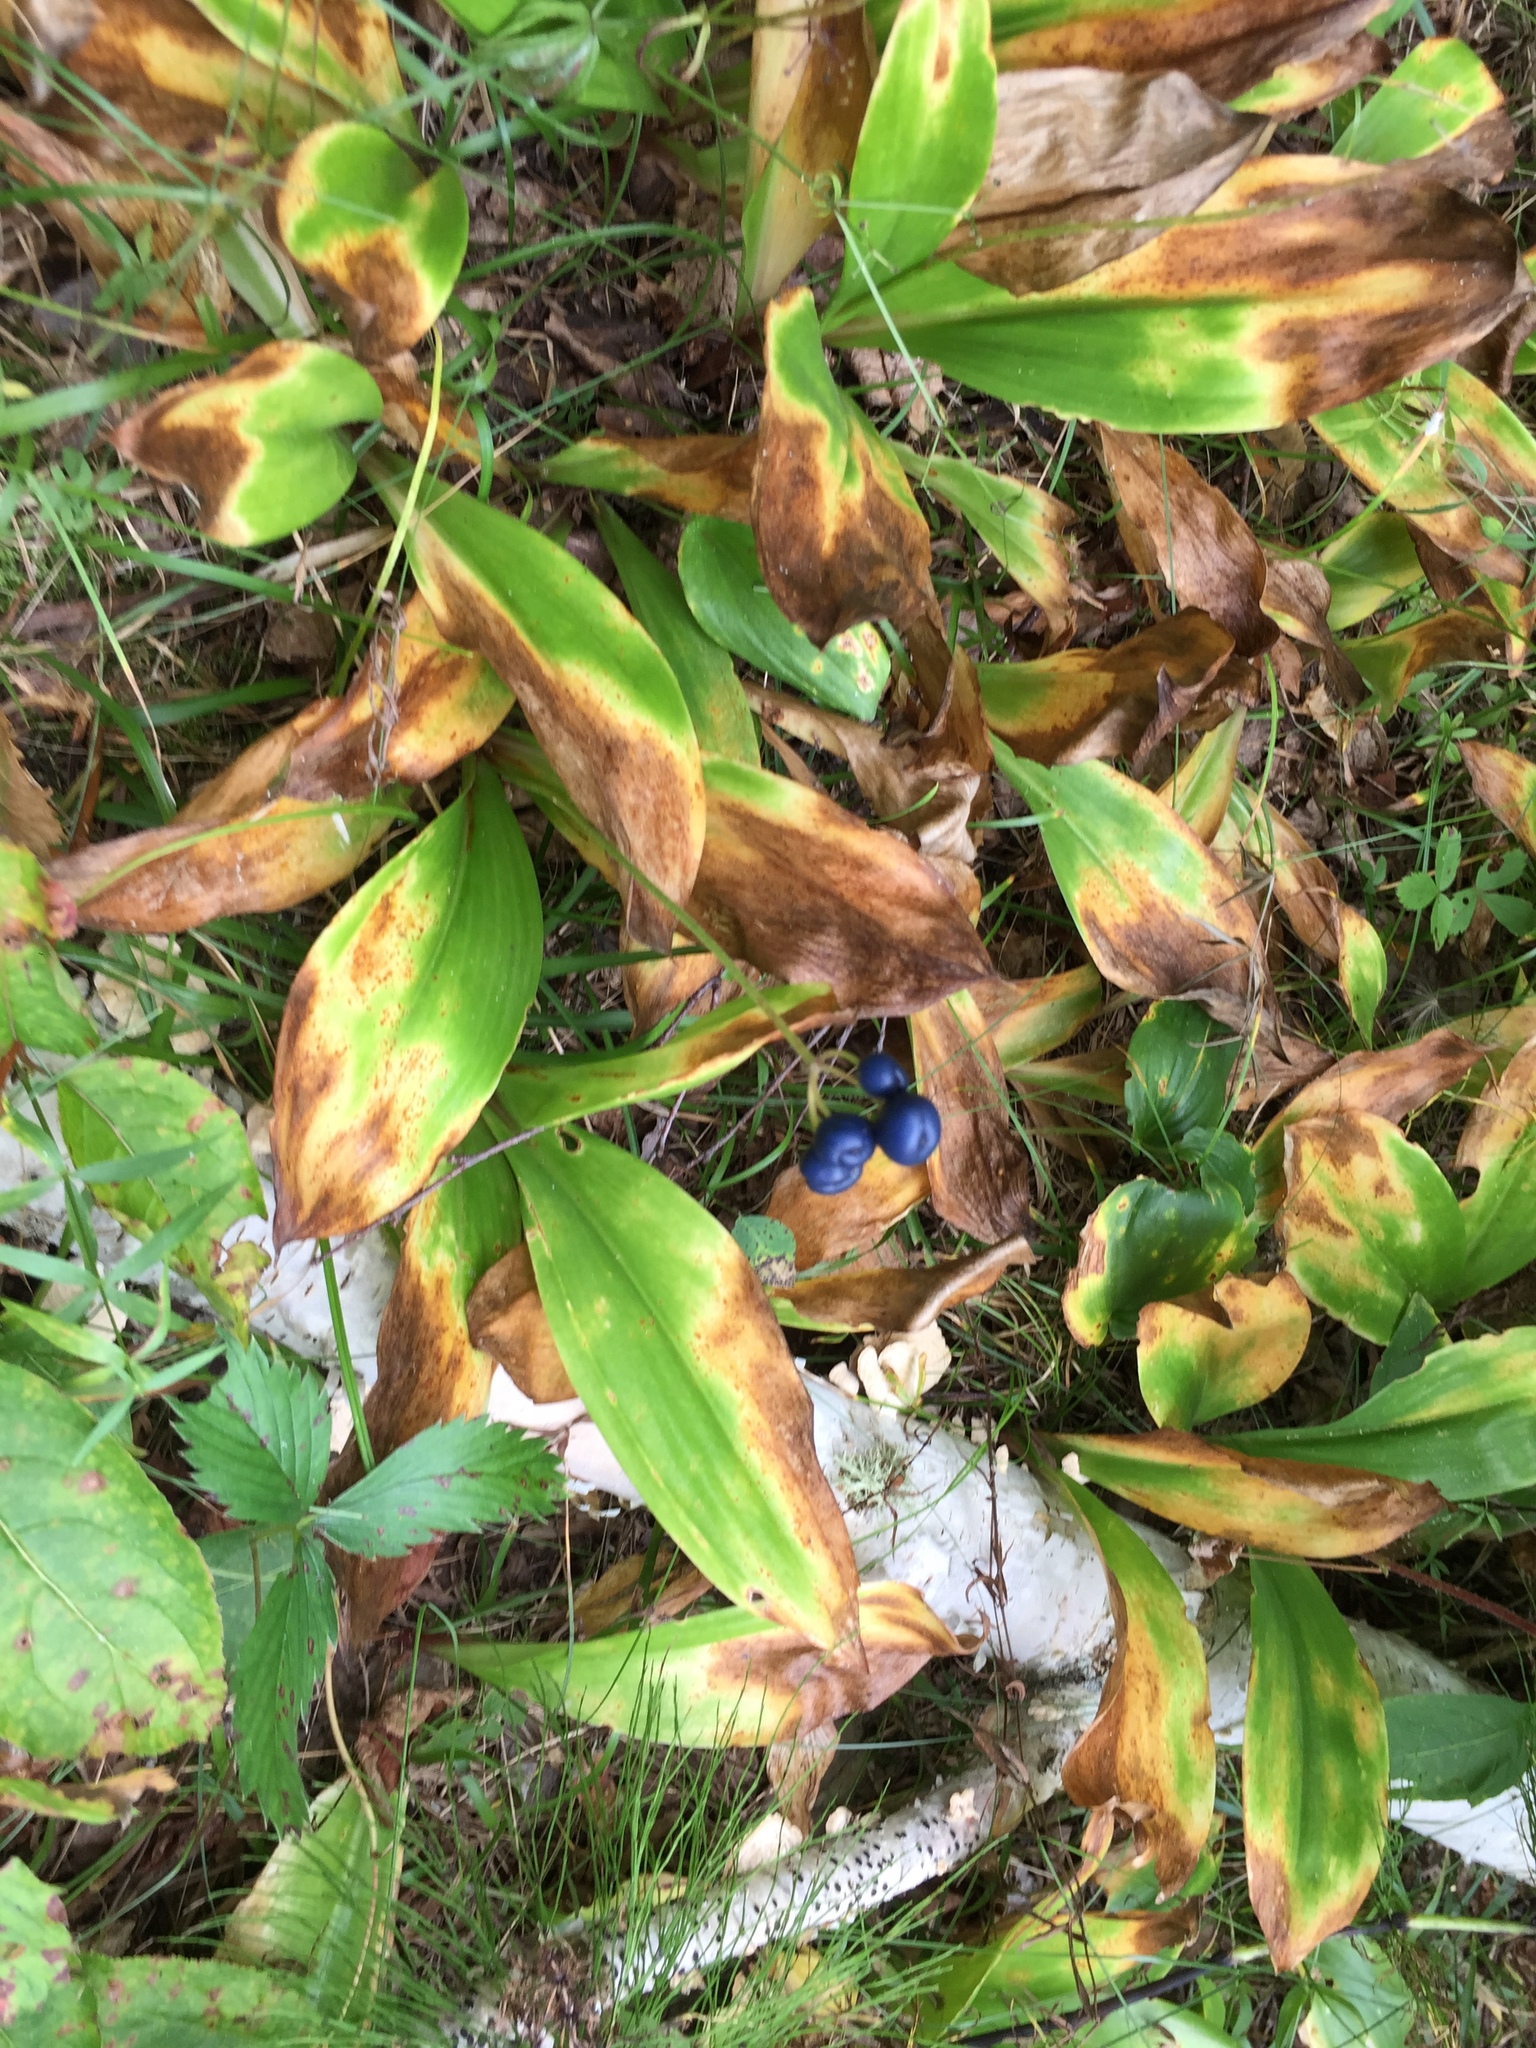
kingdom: Plantae
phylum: Tracheophyta
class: Liliopsida
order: Liliales
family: Liliaceae
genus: Clintonia
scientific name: Clintonia borealis
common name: Yellow clintonia
